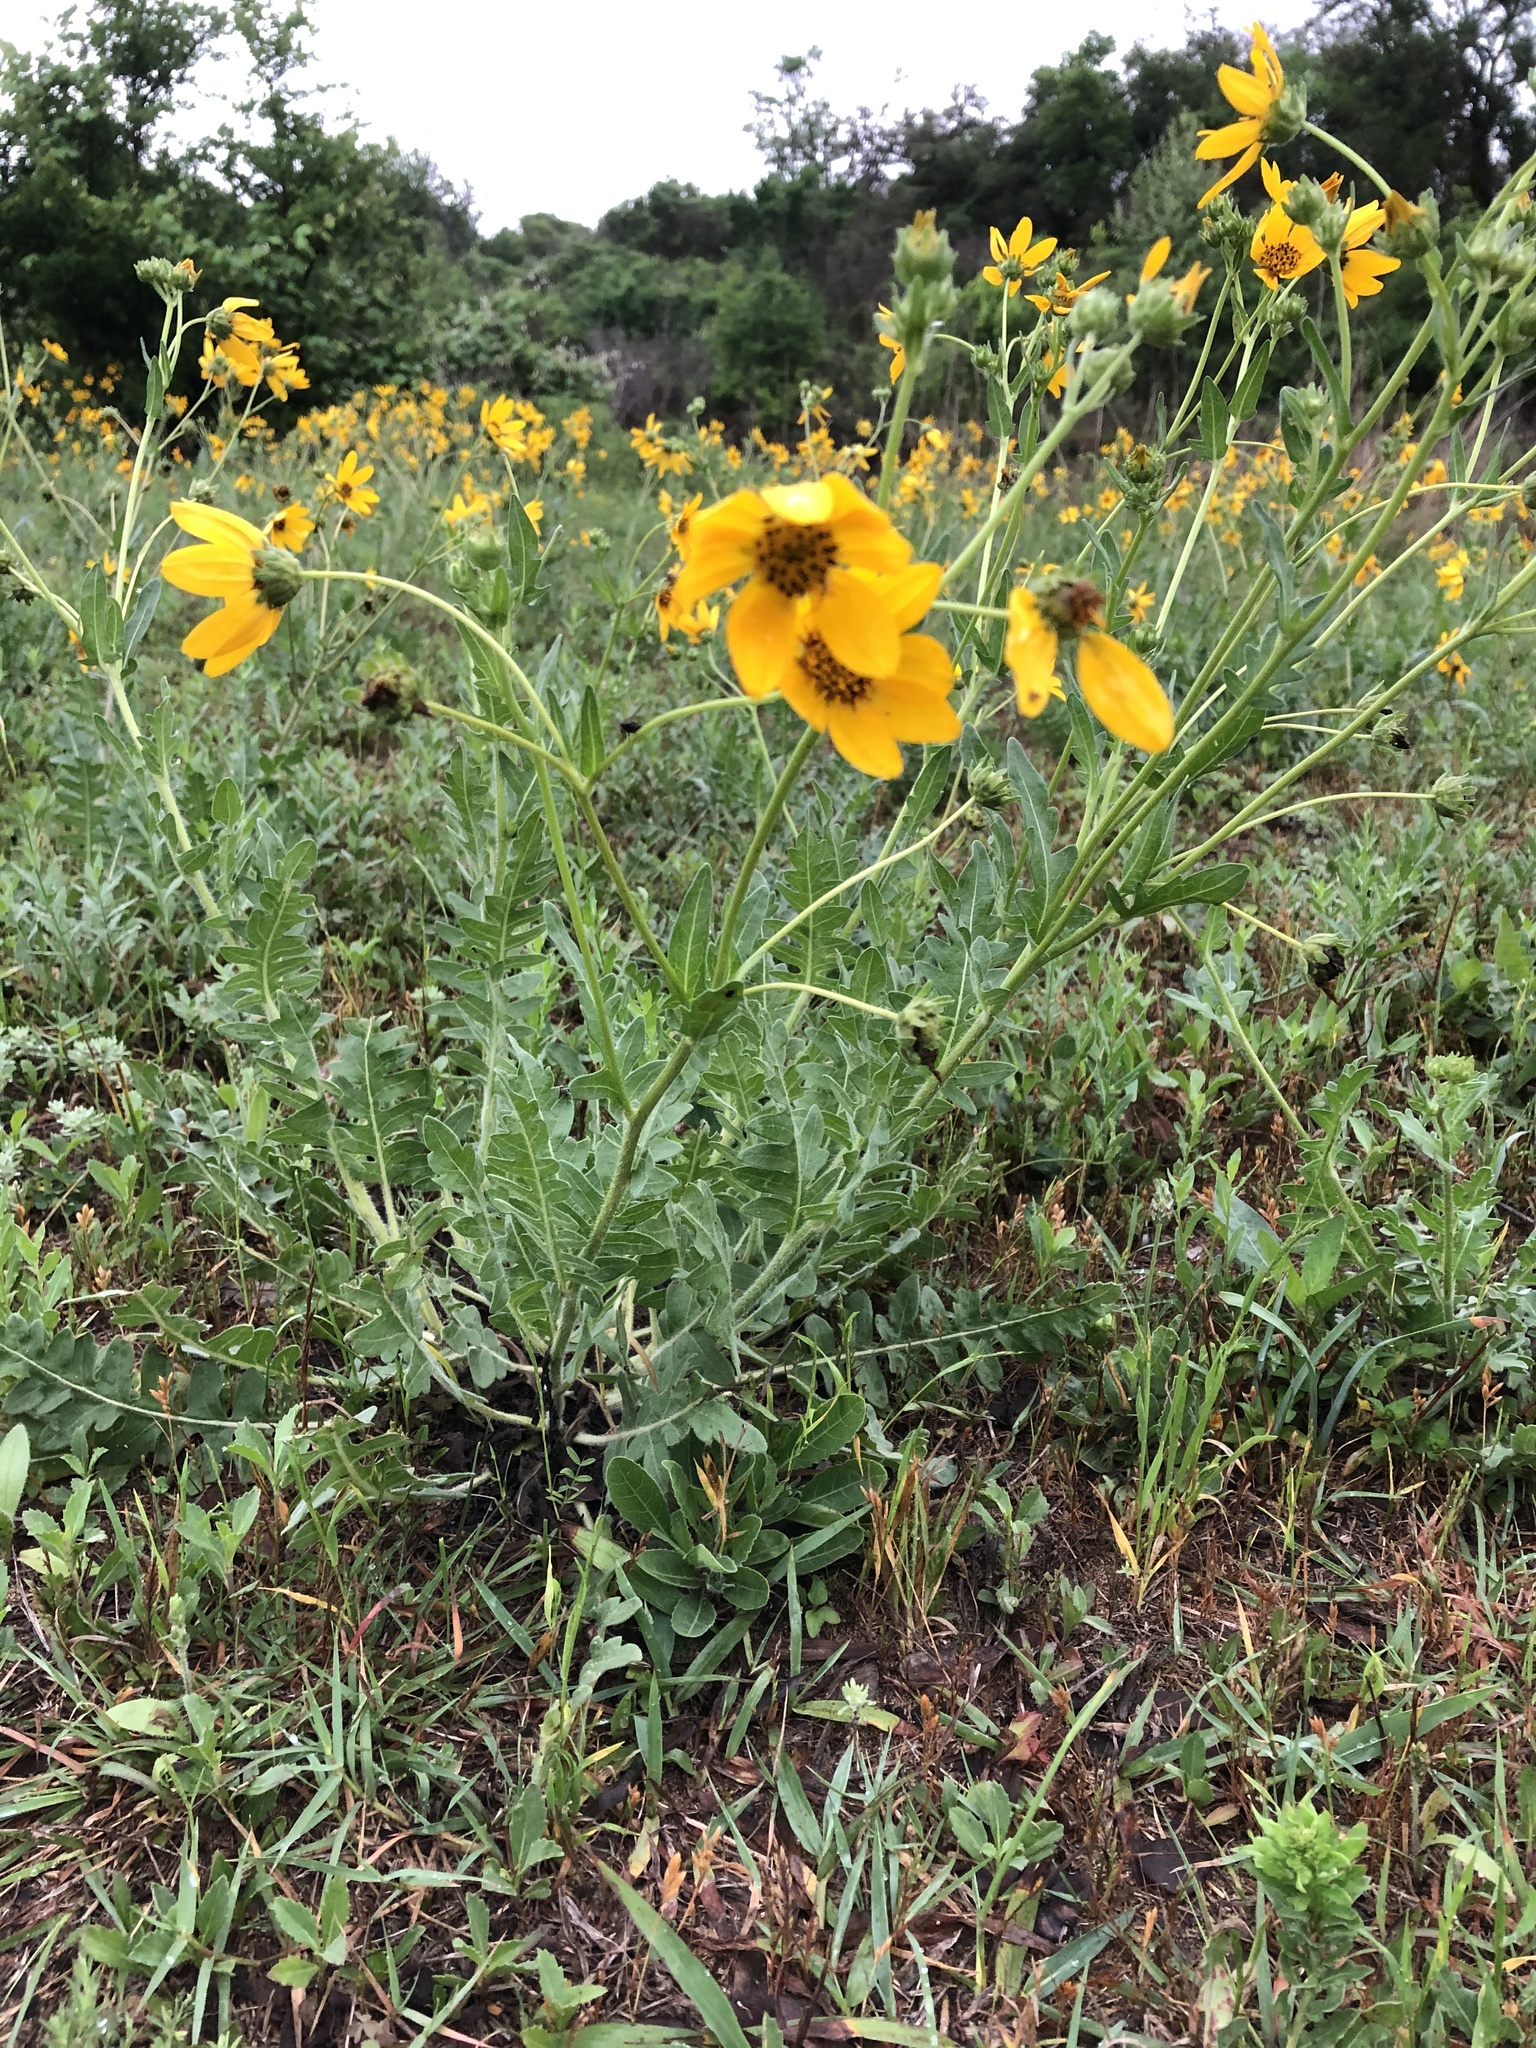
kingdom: Plantae
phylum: Tracheophyta
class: Magnoliopsida
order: Asterales
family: Asteraceae
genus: Engelmannia
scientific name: Engelmannia peristenia
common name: Engelmann's daisy
